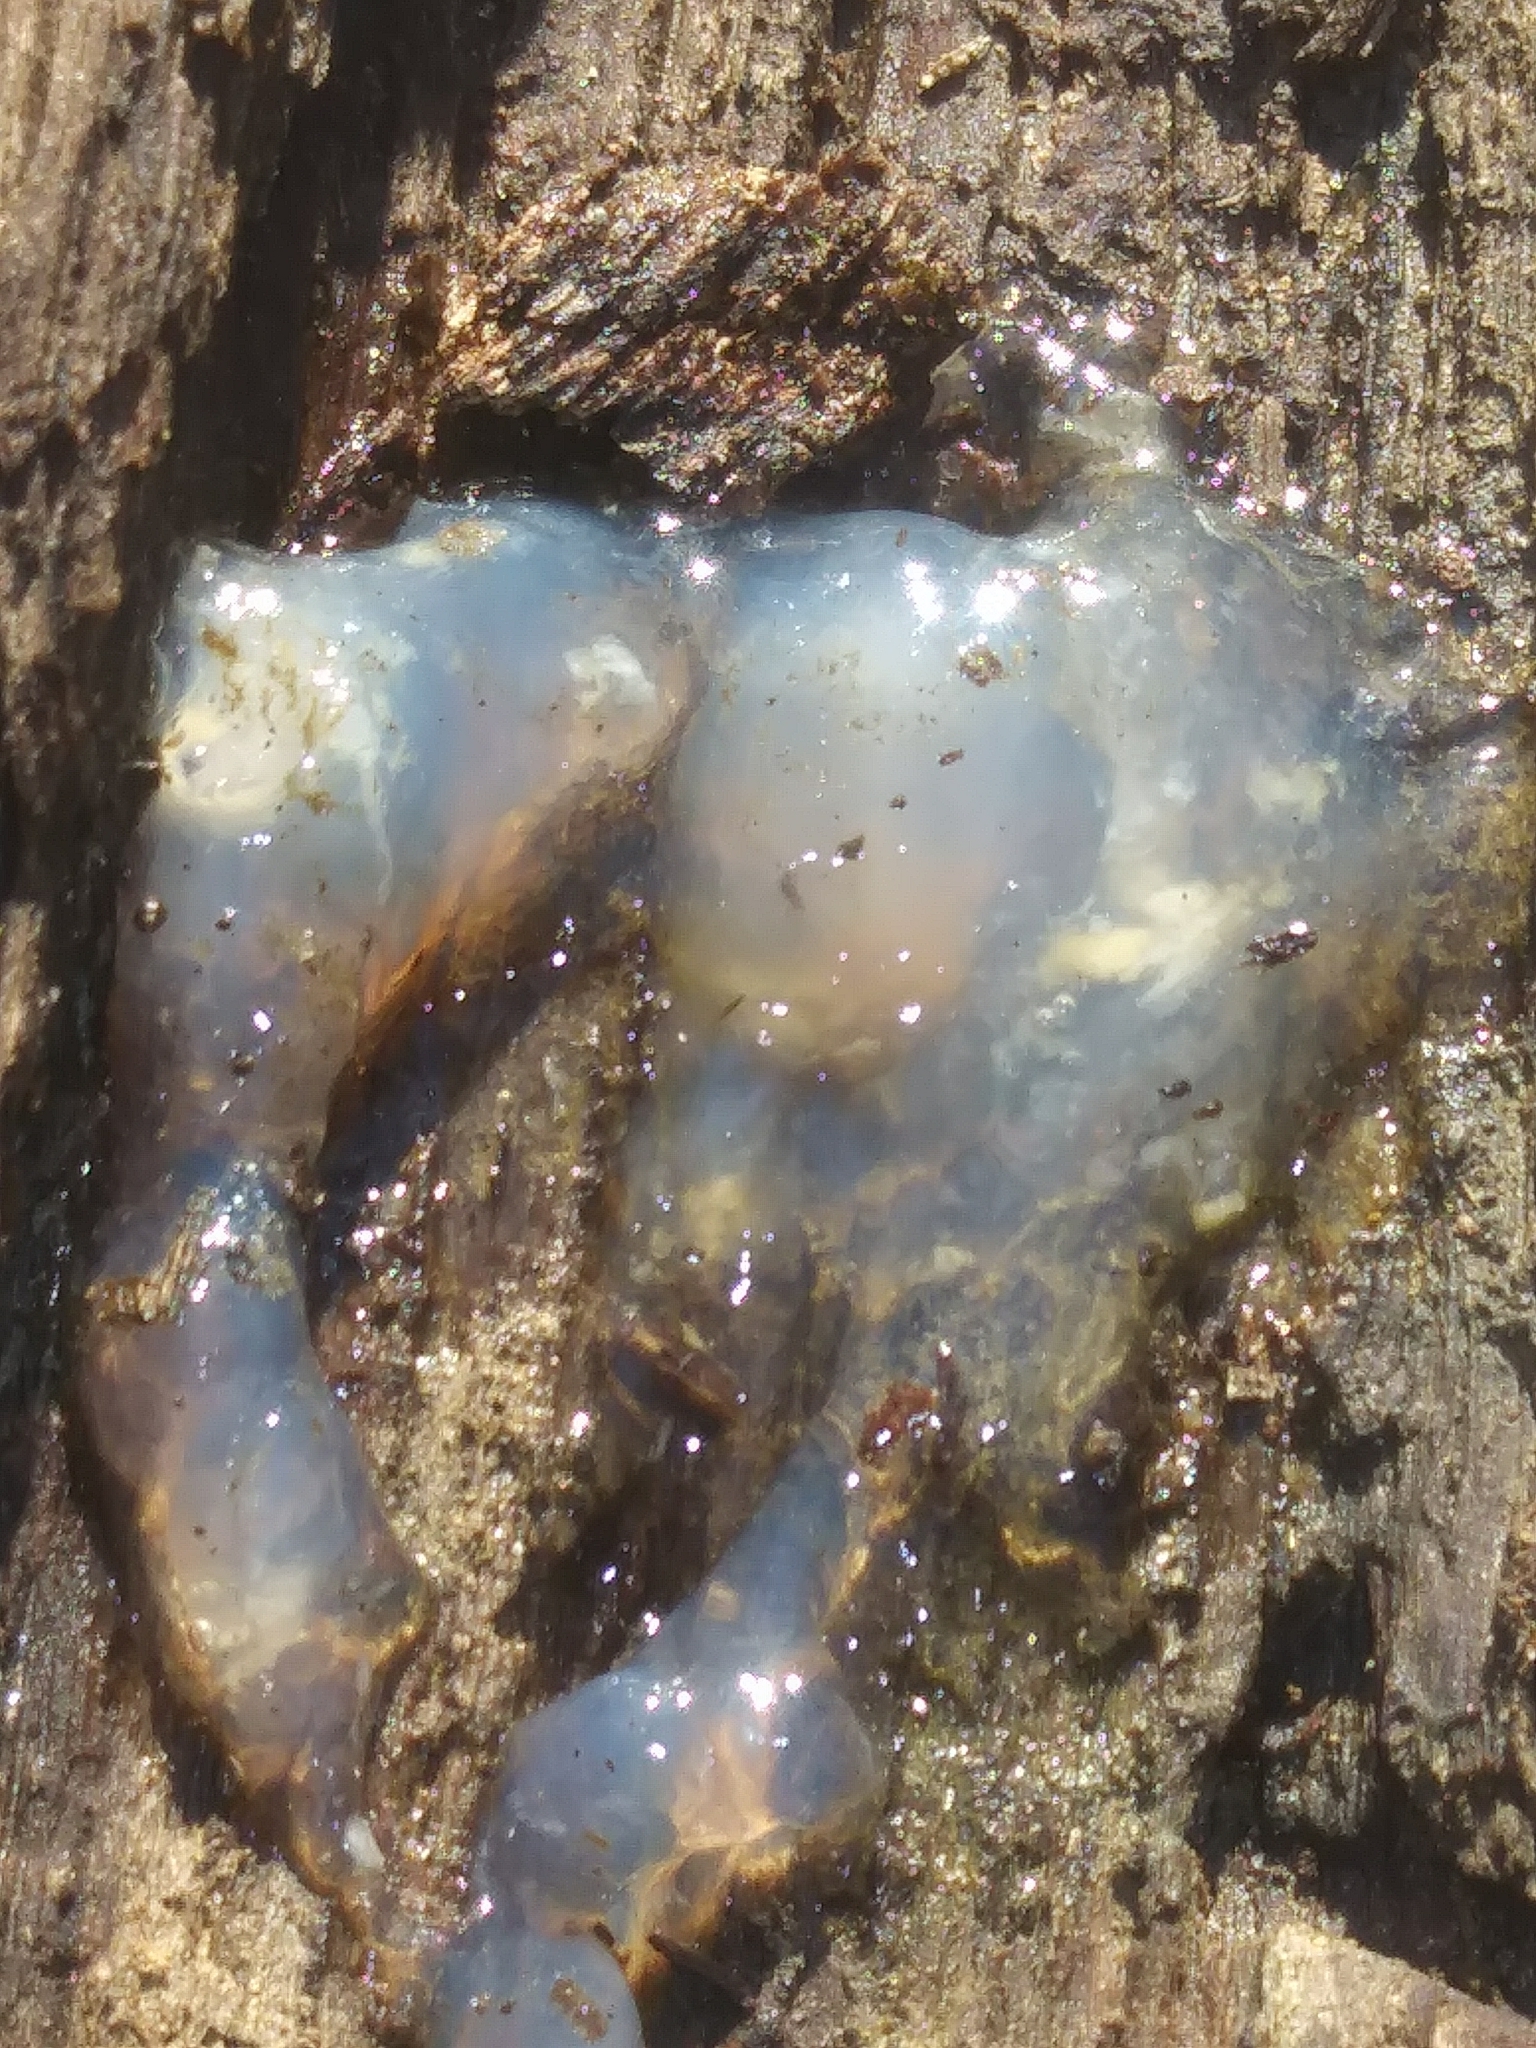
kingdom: Fungi
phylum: Basidiomycota
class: Agaricomycetes
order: Auriculariales
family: Hyaloriaceae
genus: Myxarium
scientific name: Myxarium nucleatum
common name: Crystal brain fungus
